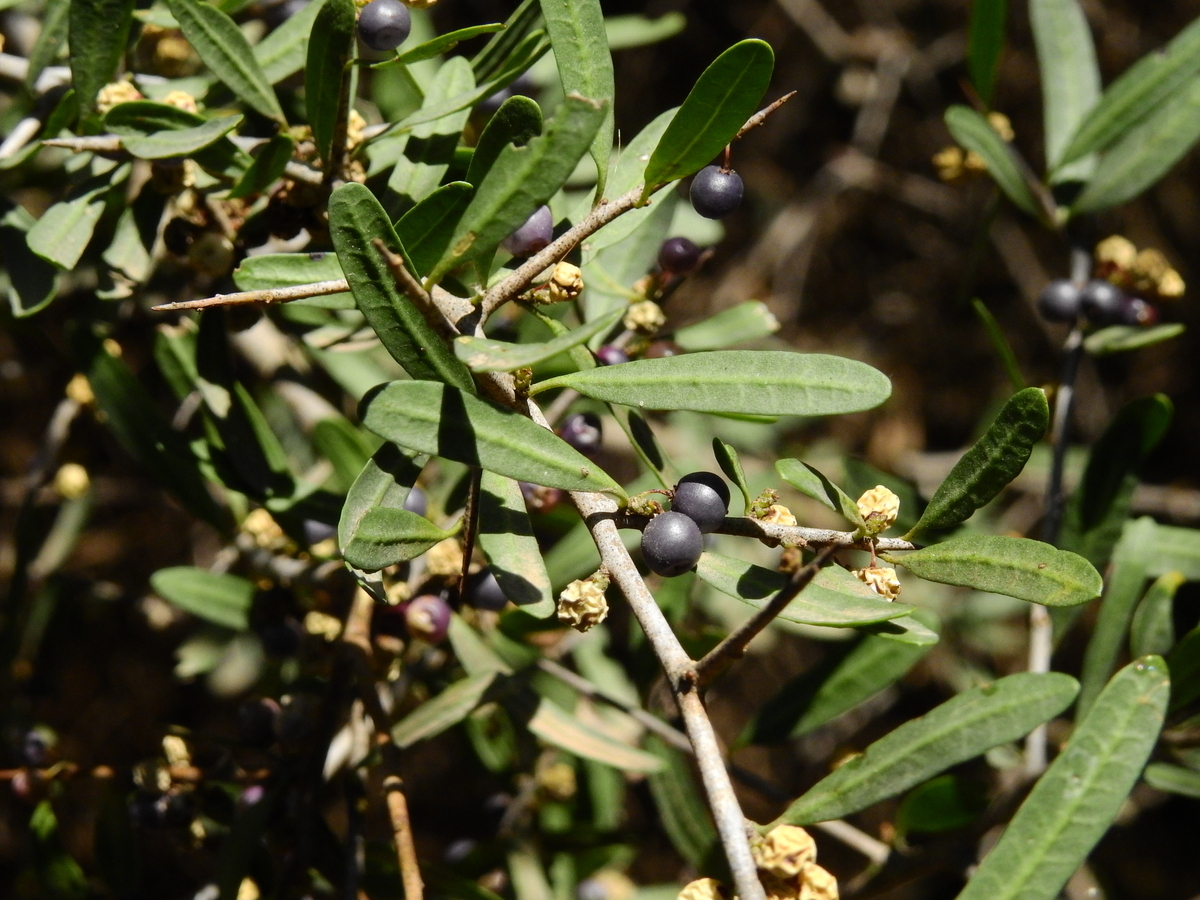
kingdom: Plantae
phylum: Tracheophyta
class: Magnoliopsida
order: Sapindales
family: Anacardiaceae
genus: Schinus
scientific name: Schinus longifolia
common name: Longleaf peppertree
